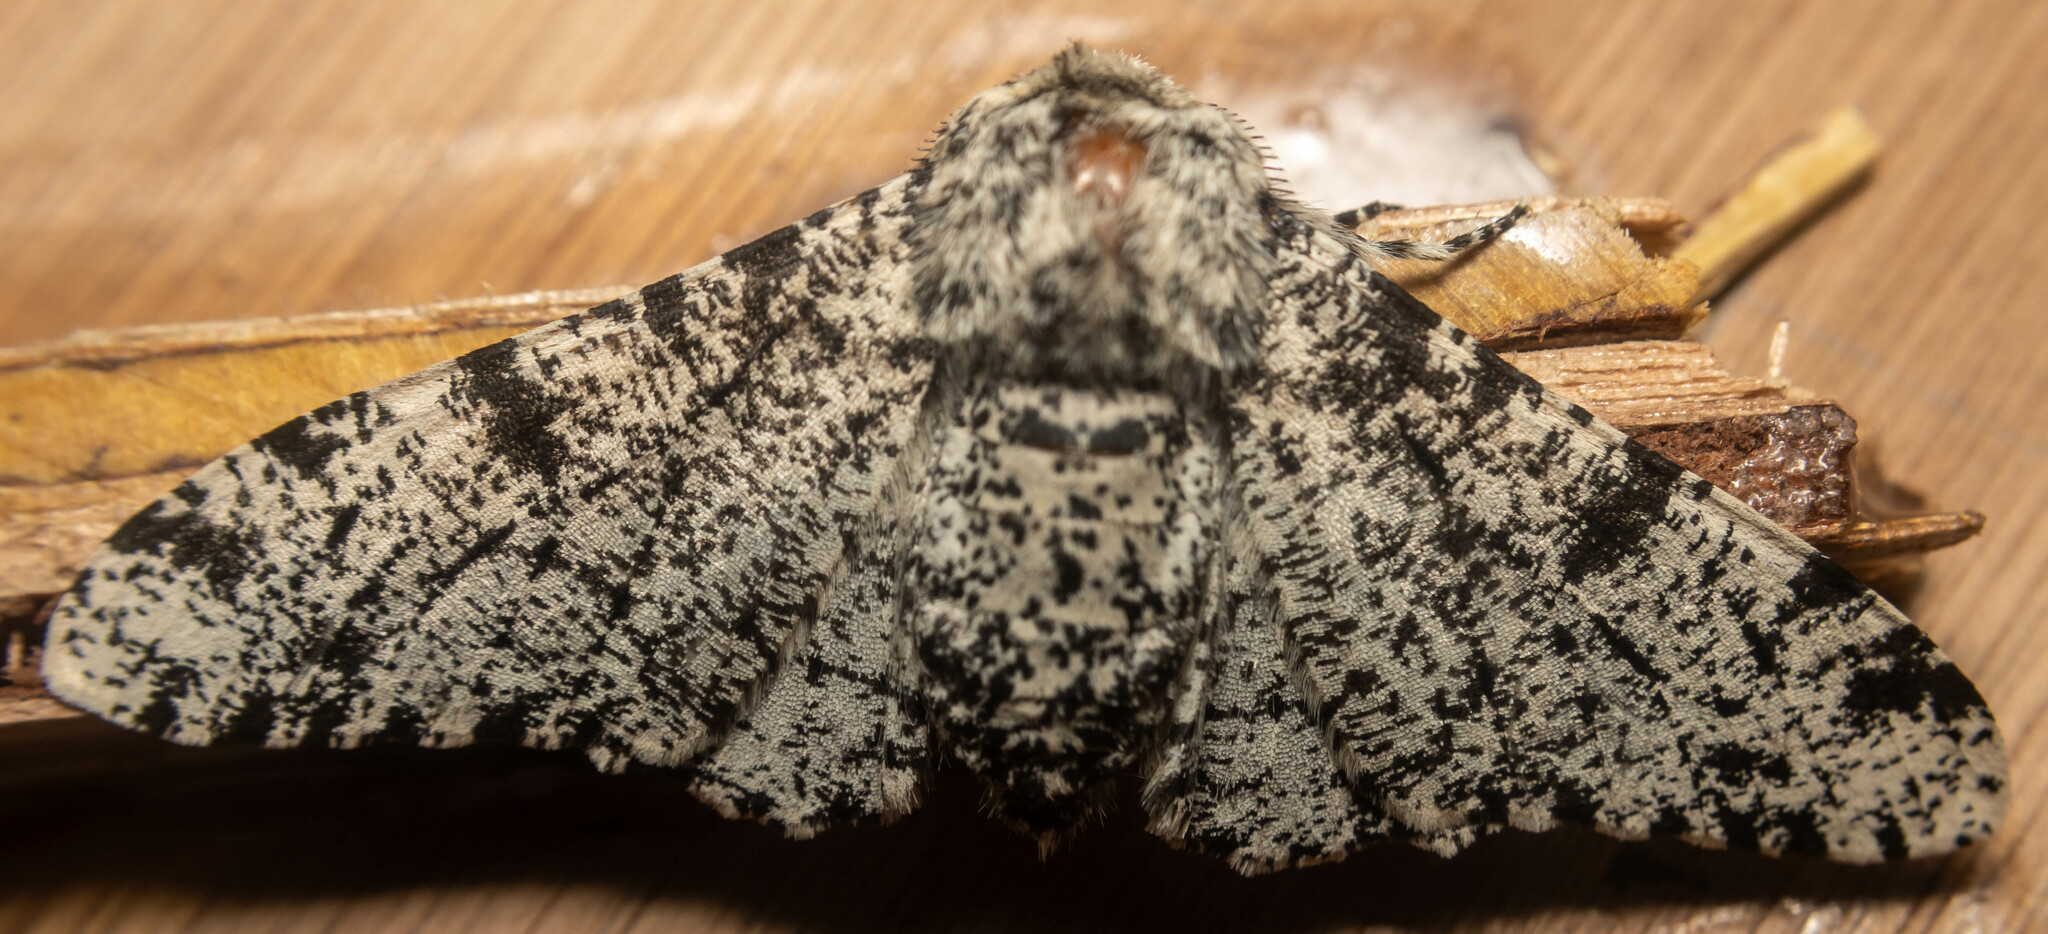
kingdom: Animalia
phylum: Arthropoda
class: Insecta
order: Lepidoptera
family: Geometridae
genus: Biston
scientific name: Biston betularia
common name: Peppered moth
